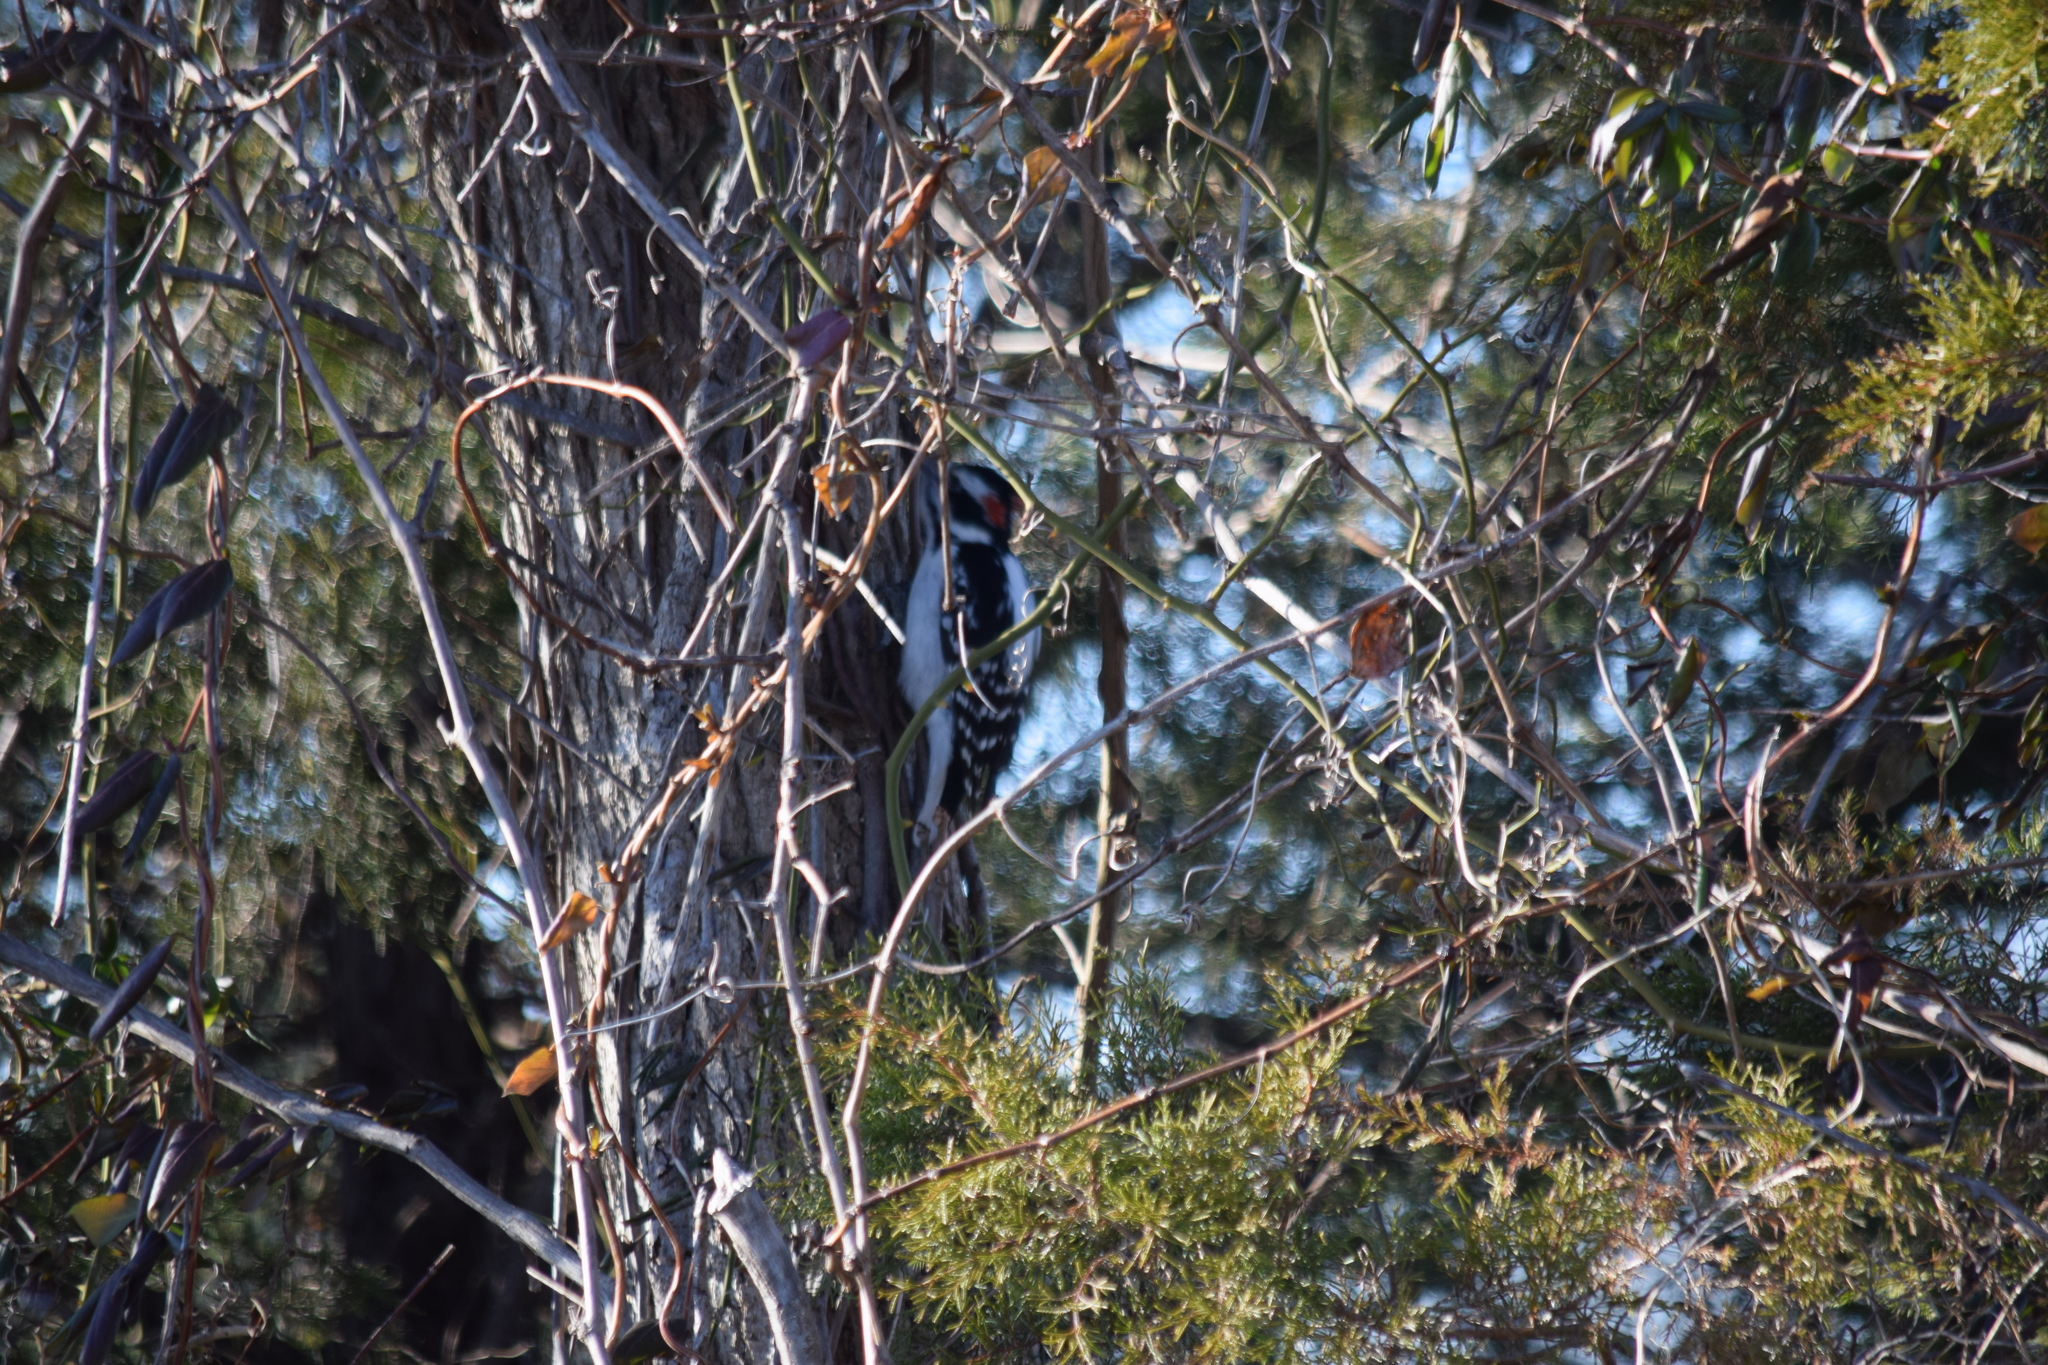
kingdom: Animalia
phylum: Chordata
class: Aves
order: Piciformes
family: Picidae
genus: Leuconotopicus
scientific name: Leuconotopicus villosus
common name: Hairy woodpecker
